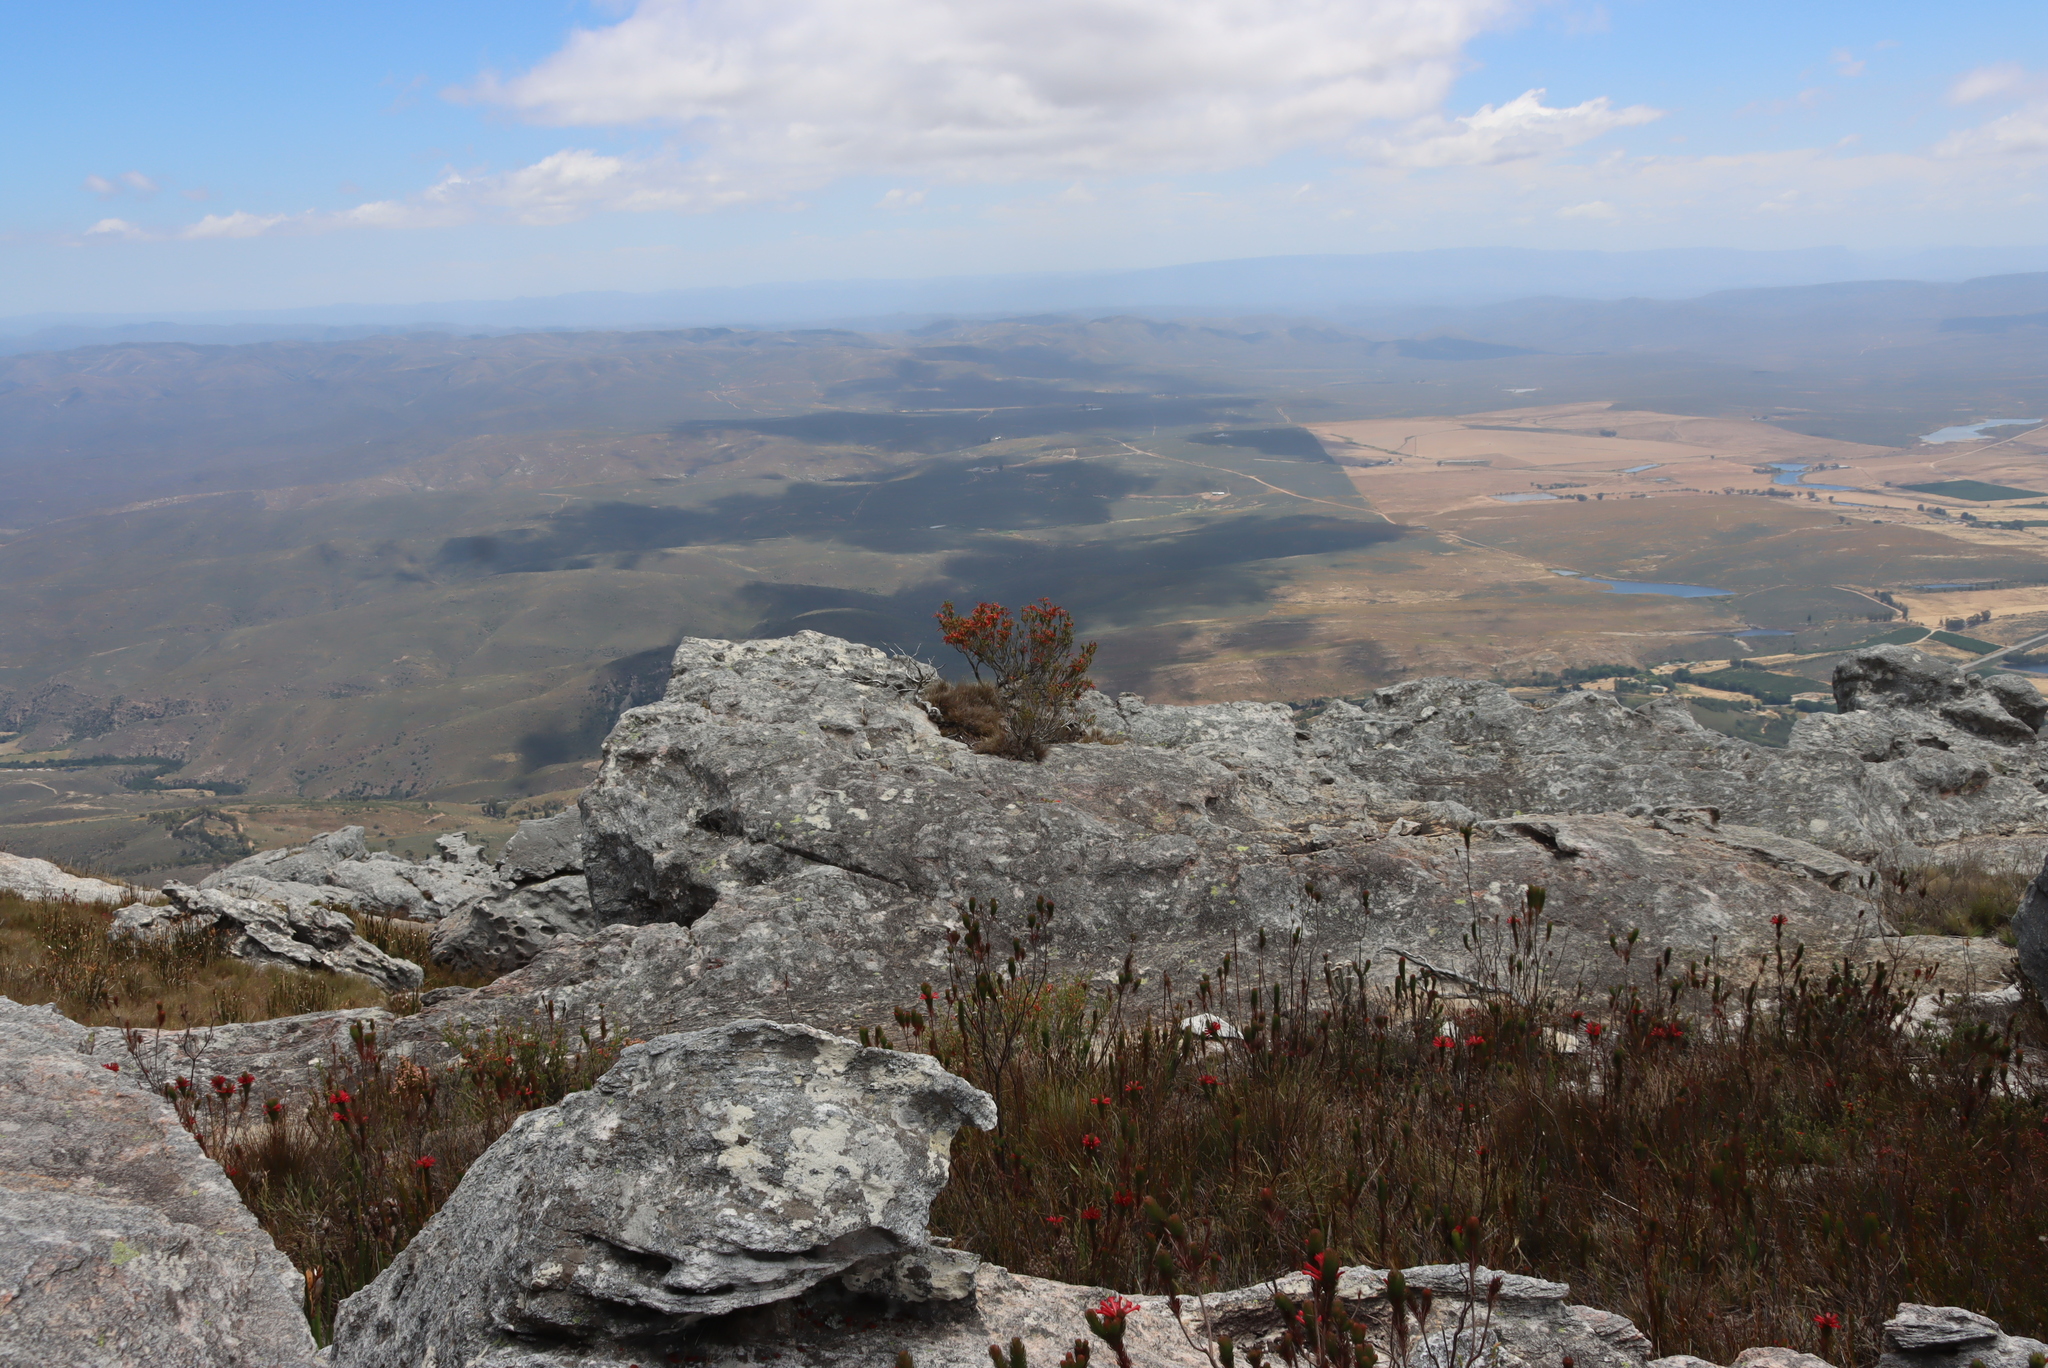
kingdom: Plantae
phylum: Tracheophyta
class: Magnoliopsida
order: Ericales
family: Ericaceae
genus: Erica
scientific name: Erica discolor
